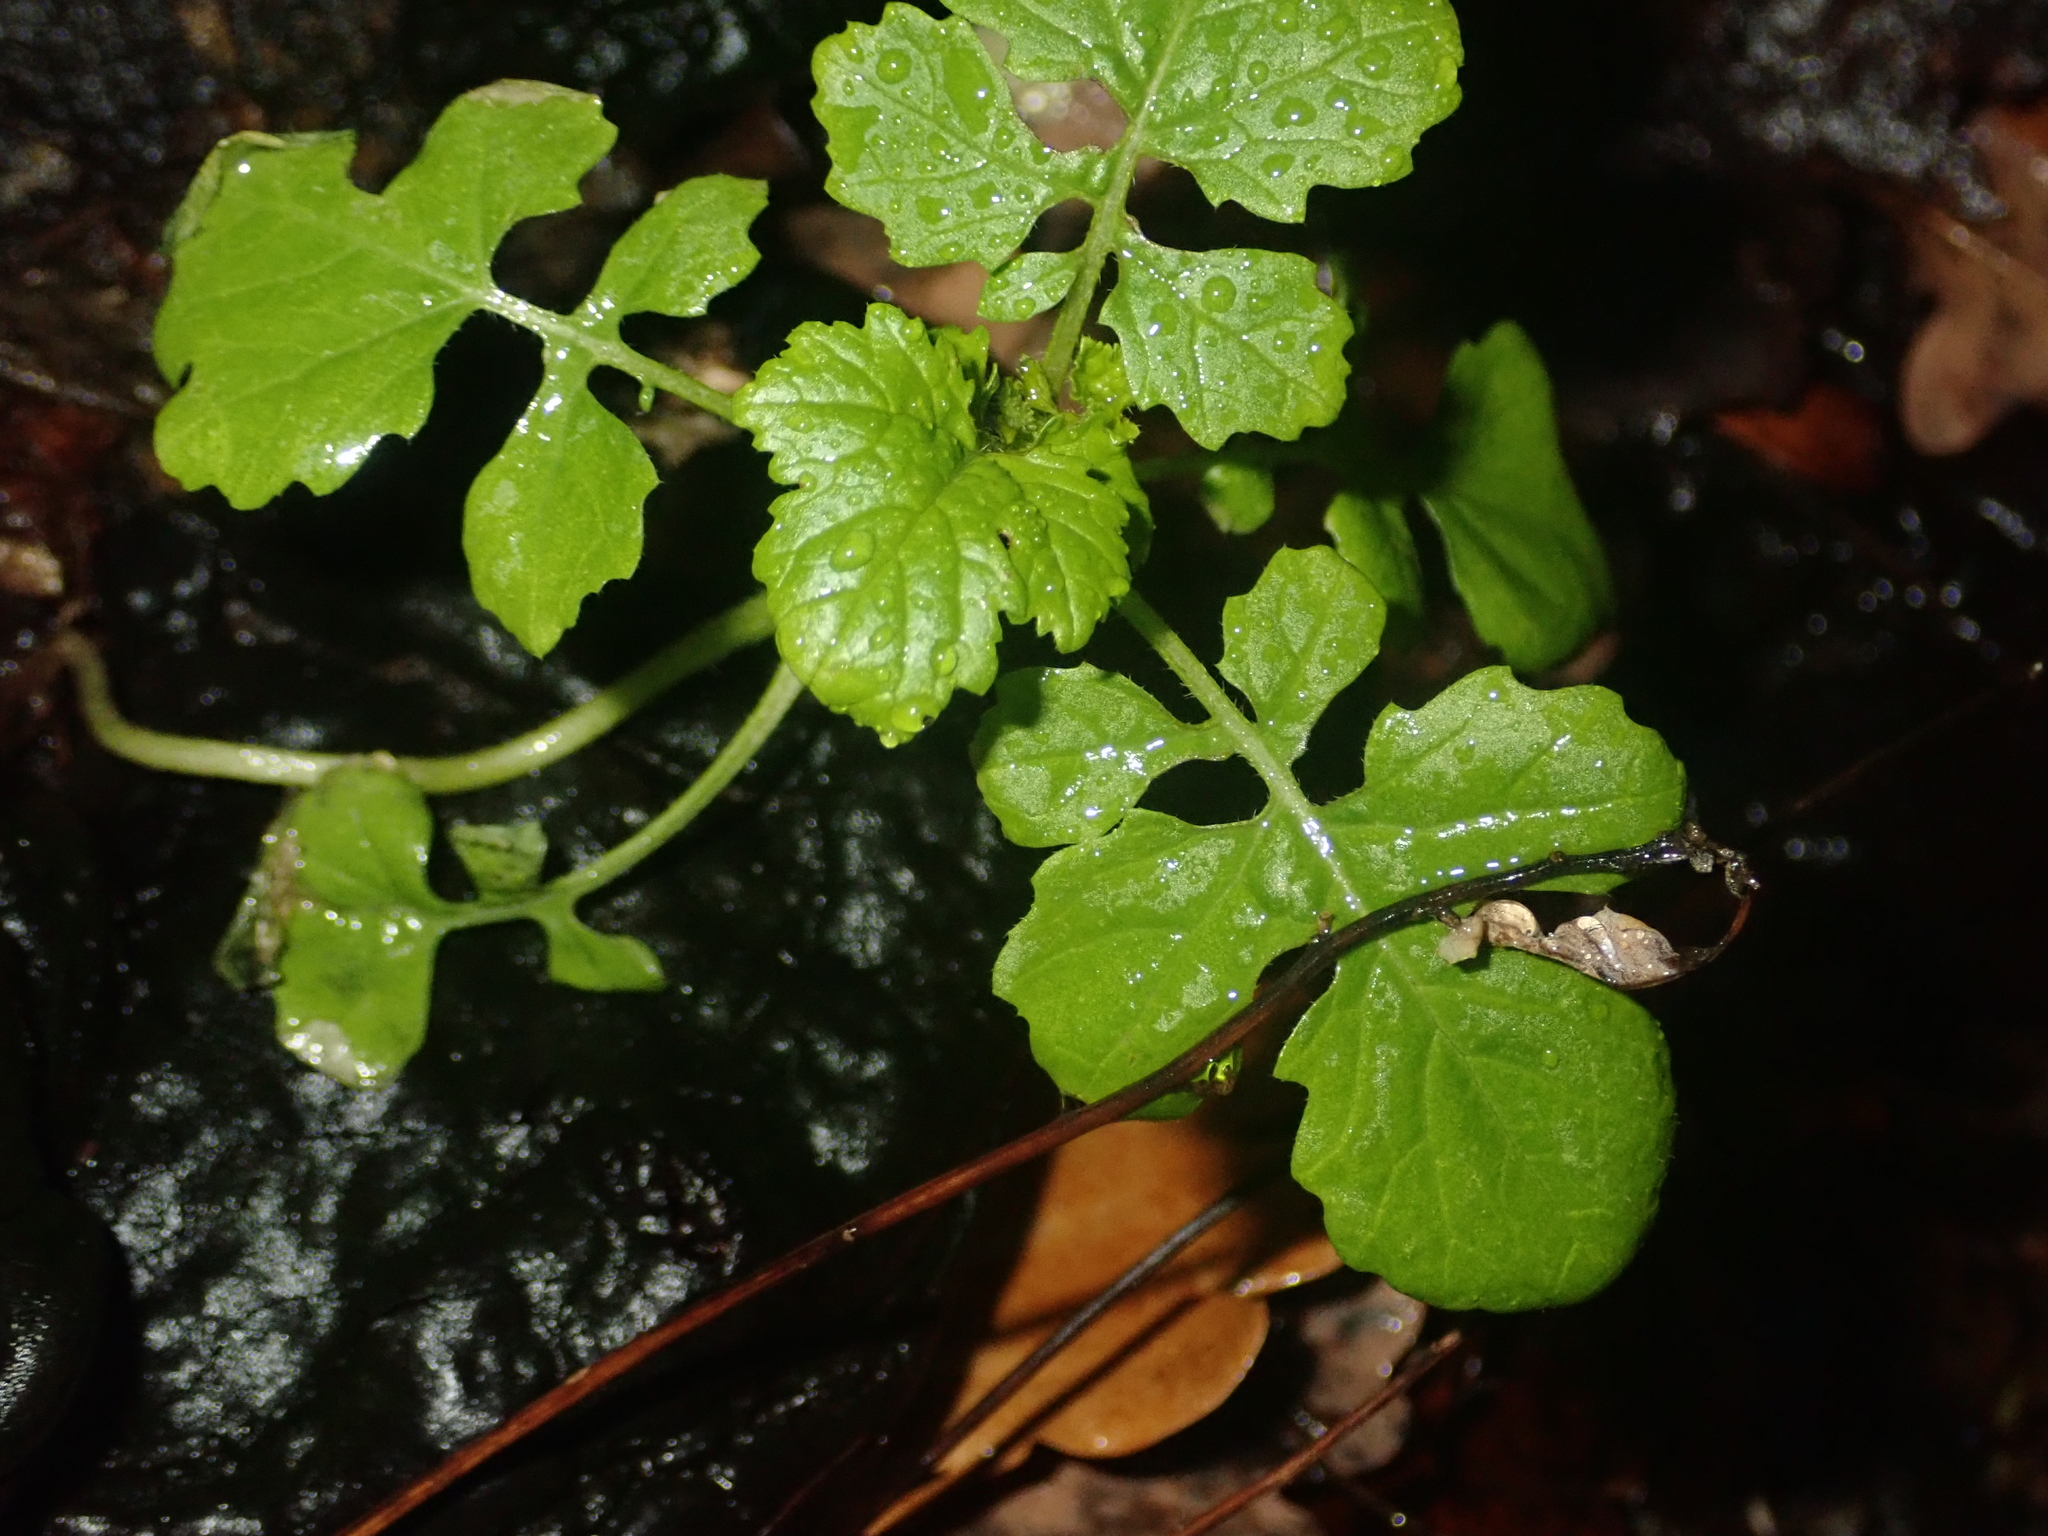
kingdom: Plantae
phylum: Tracheophyta
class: Magnoliopsida
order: Asterales
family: Asteraceae
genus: Mycelis
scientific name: Mycelis muralis
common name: Wall lettuce
